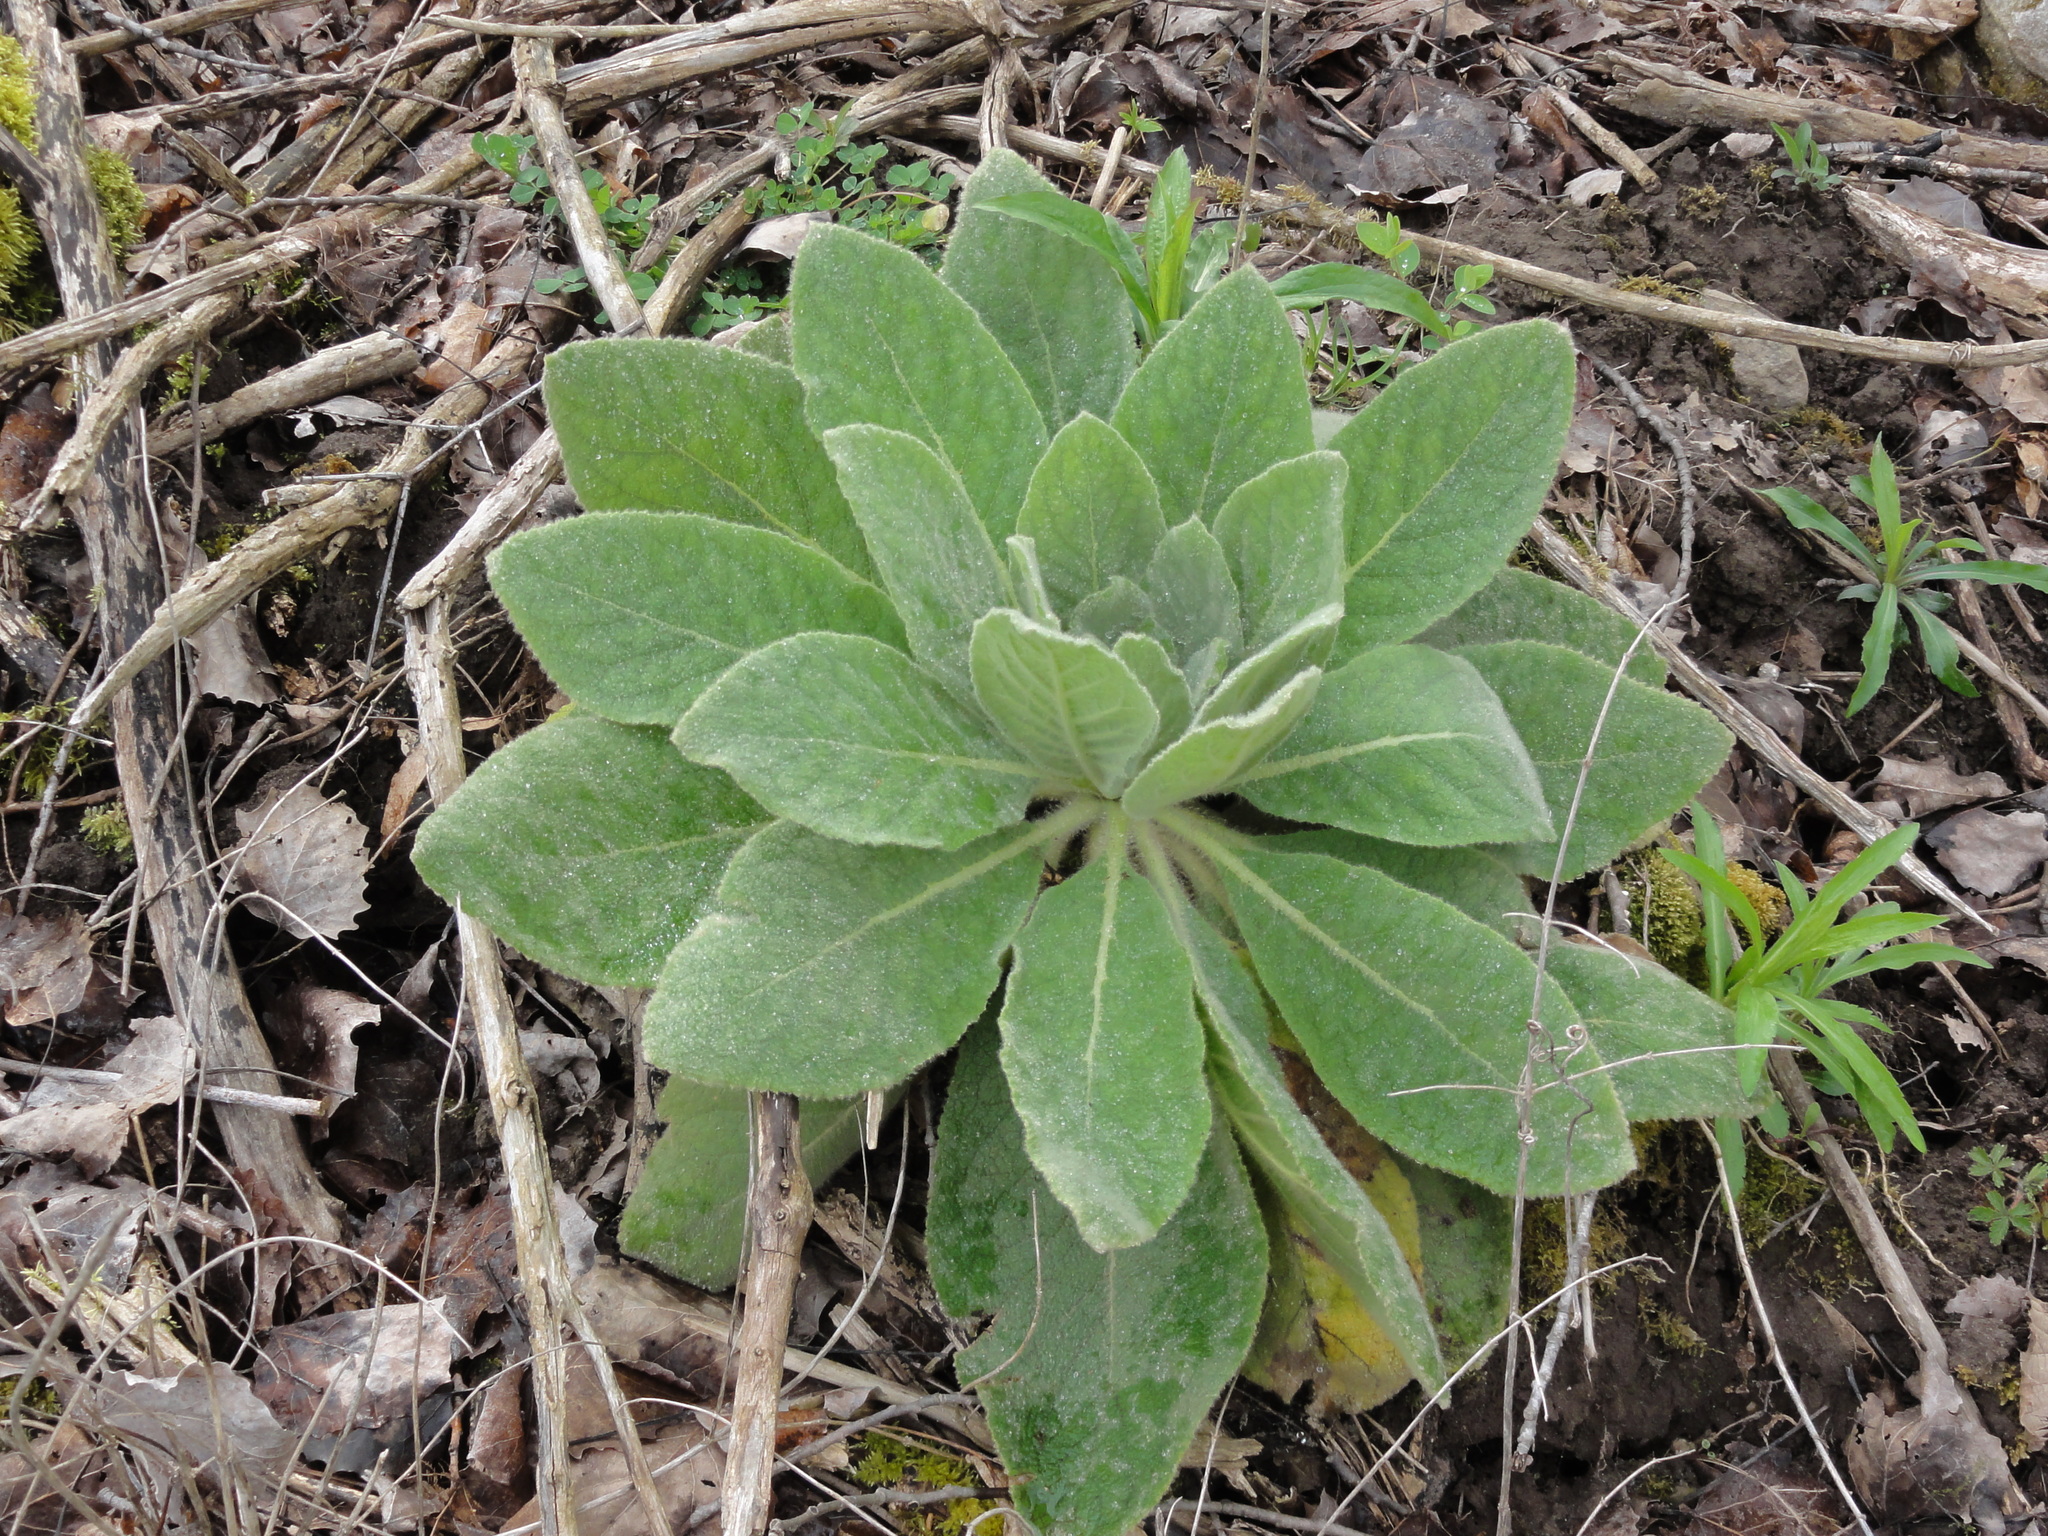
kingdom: Plantae
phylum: Tracheophyta
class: Magnoliopsida
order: Lamiales
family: Scrophulariaceae
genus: Verbascum
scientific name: Verbascum thapsus
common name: Common mullein
